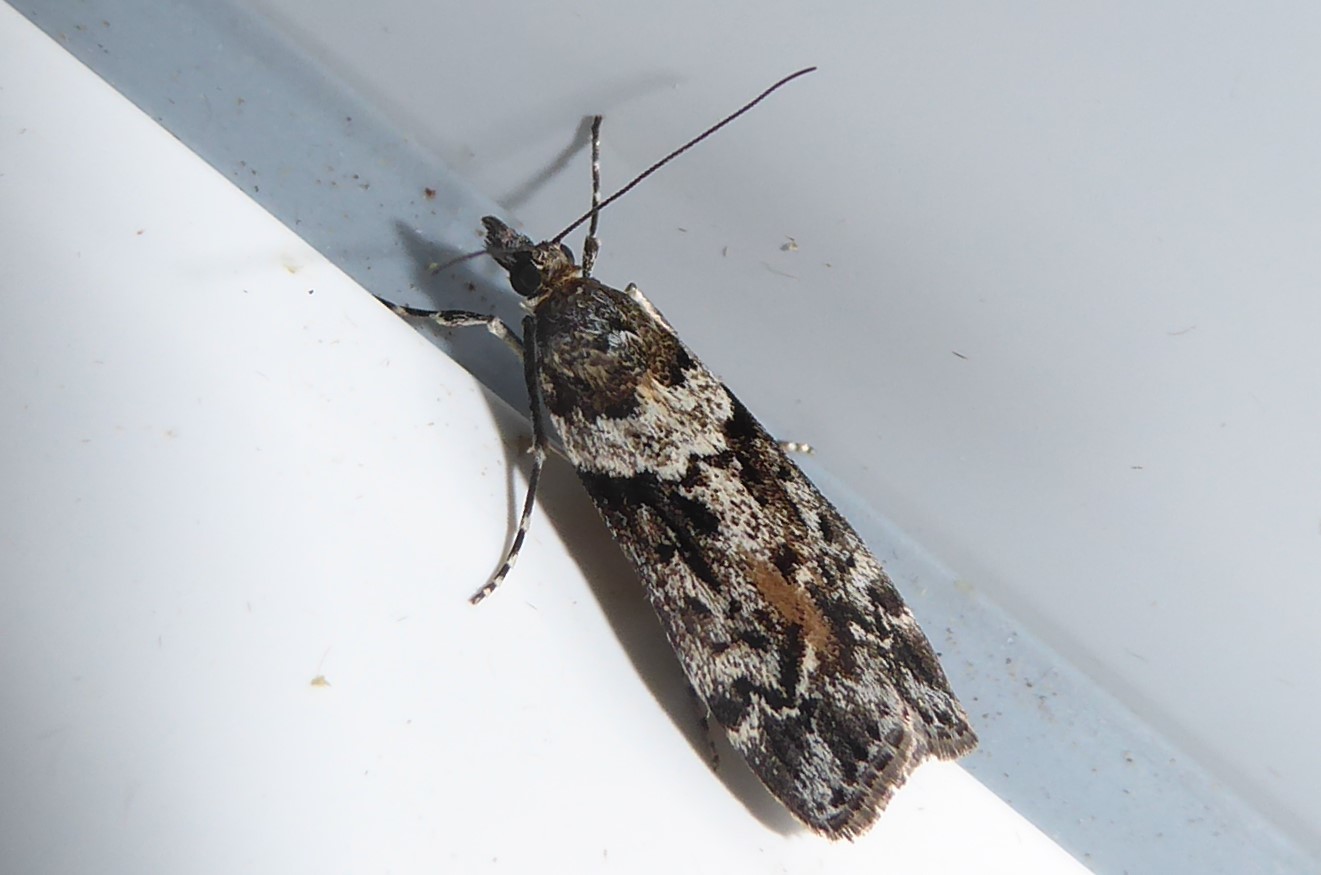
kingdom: Animalia
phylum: Arthropoda
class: Insecta
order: Lepidoptera
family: Crambidae
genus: Eudonia
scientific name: Eudonia submarginalis
